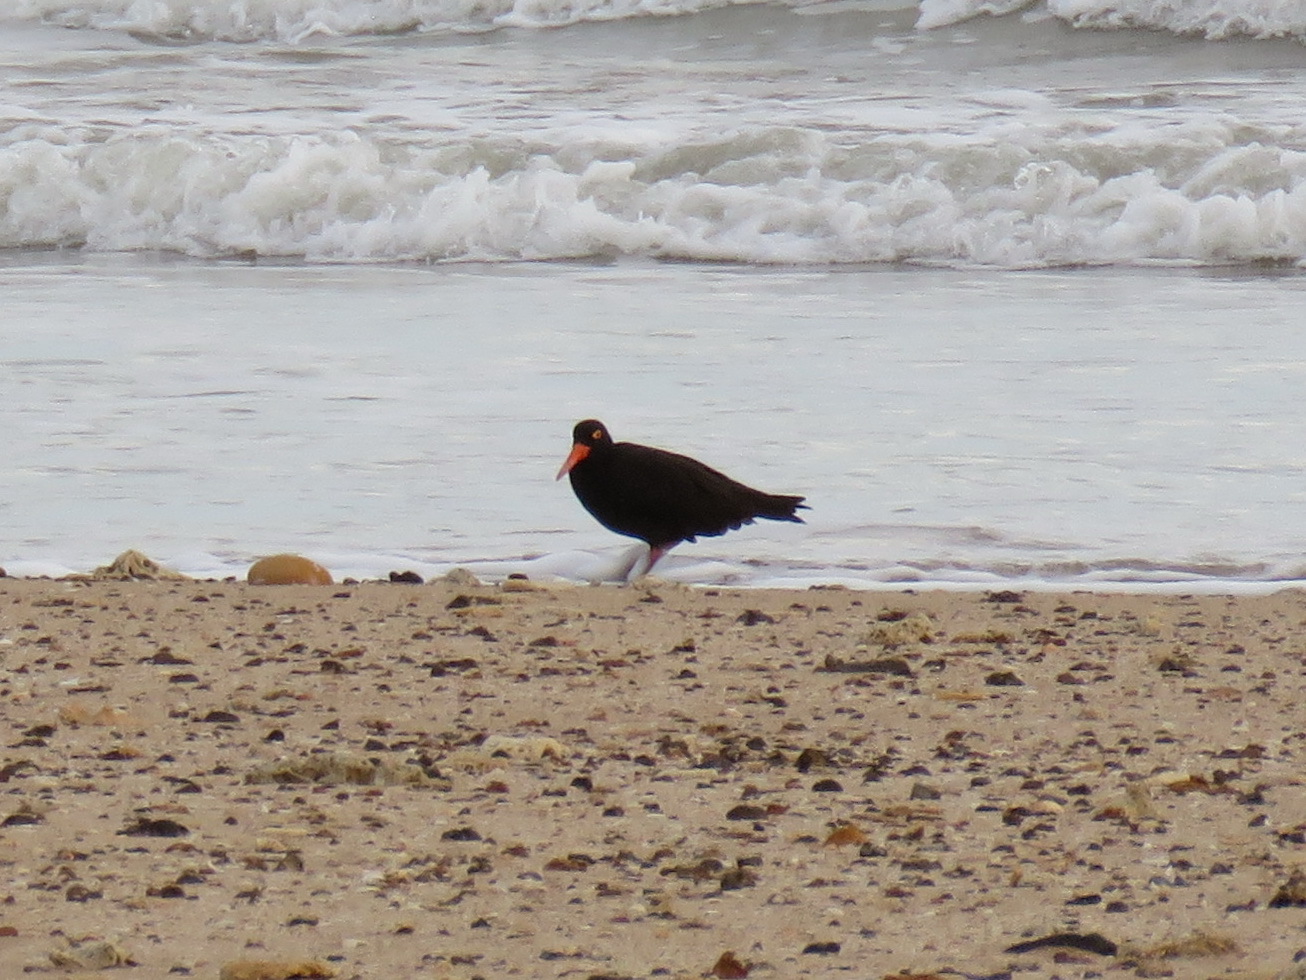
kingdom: Animalia
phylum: Chordata
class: Aves
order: Charadriiformes
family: Haematopodidae
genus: Haematopus
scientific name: Haematopus fuliginosus
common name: Sooty oystercatcher
